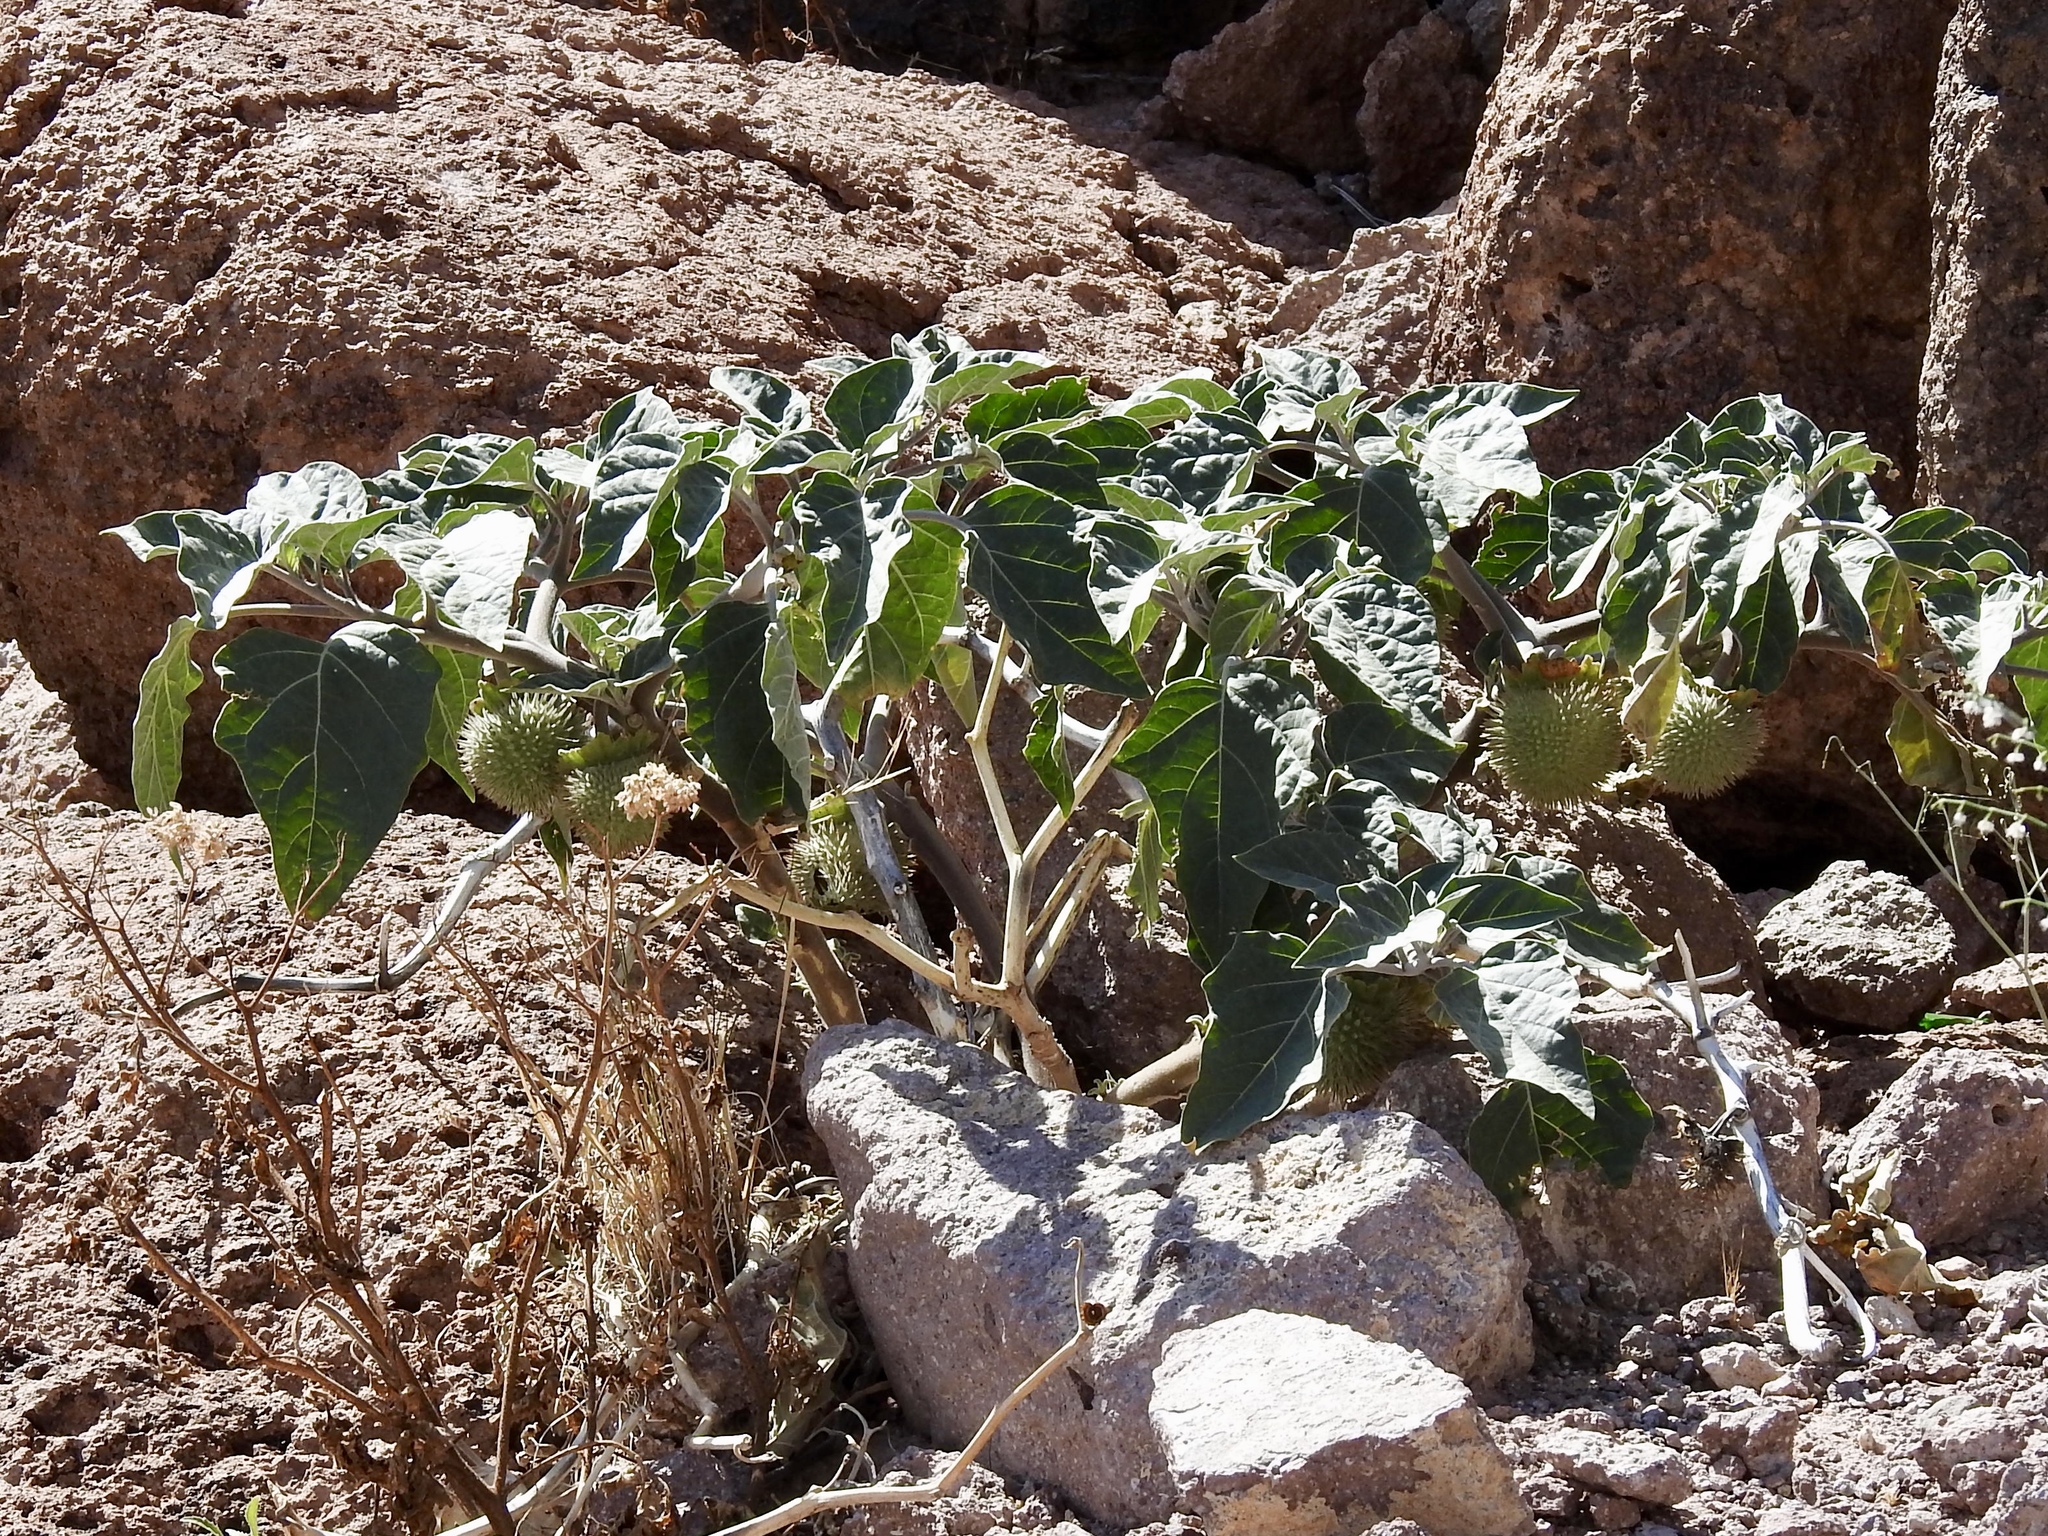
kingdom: Plantae
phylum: Tracheophyta
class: Magnoliopsida
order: Solanales
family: Solanaceae
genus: Datura
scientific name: Datura wrightii
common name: Sacred thorn-apple
